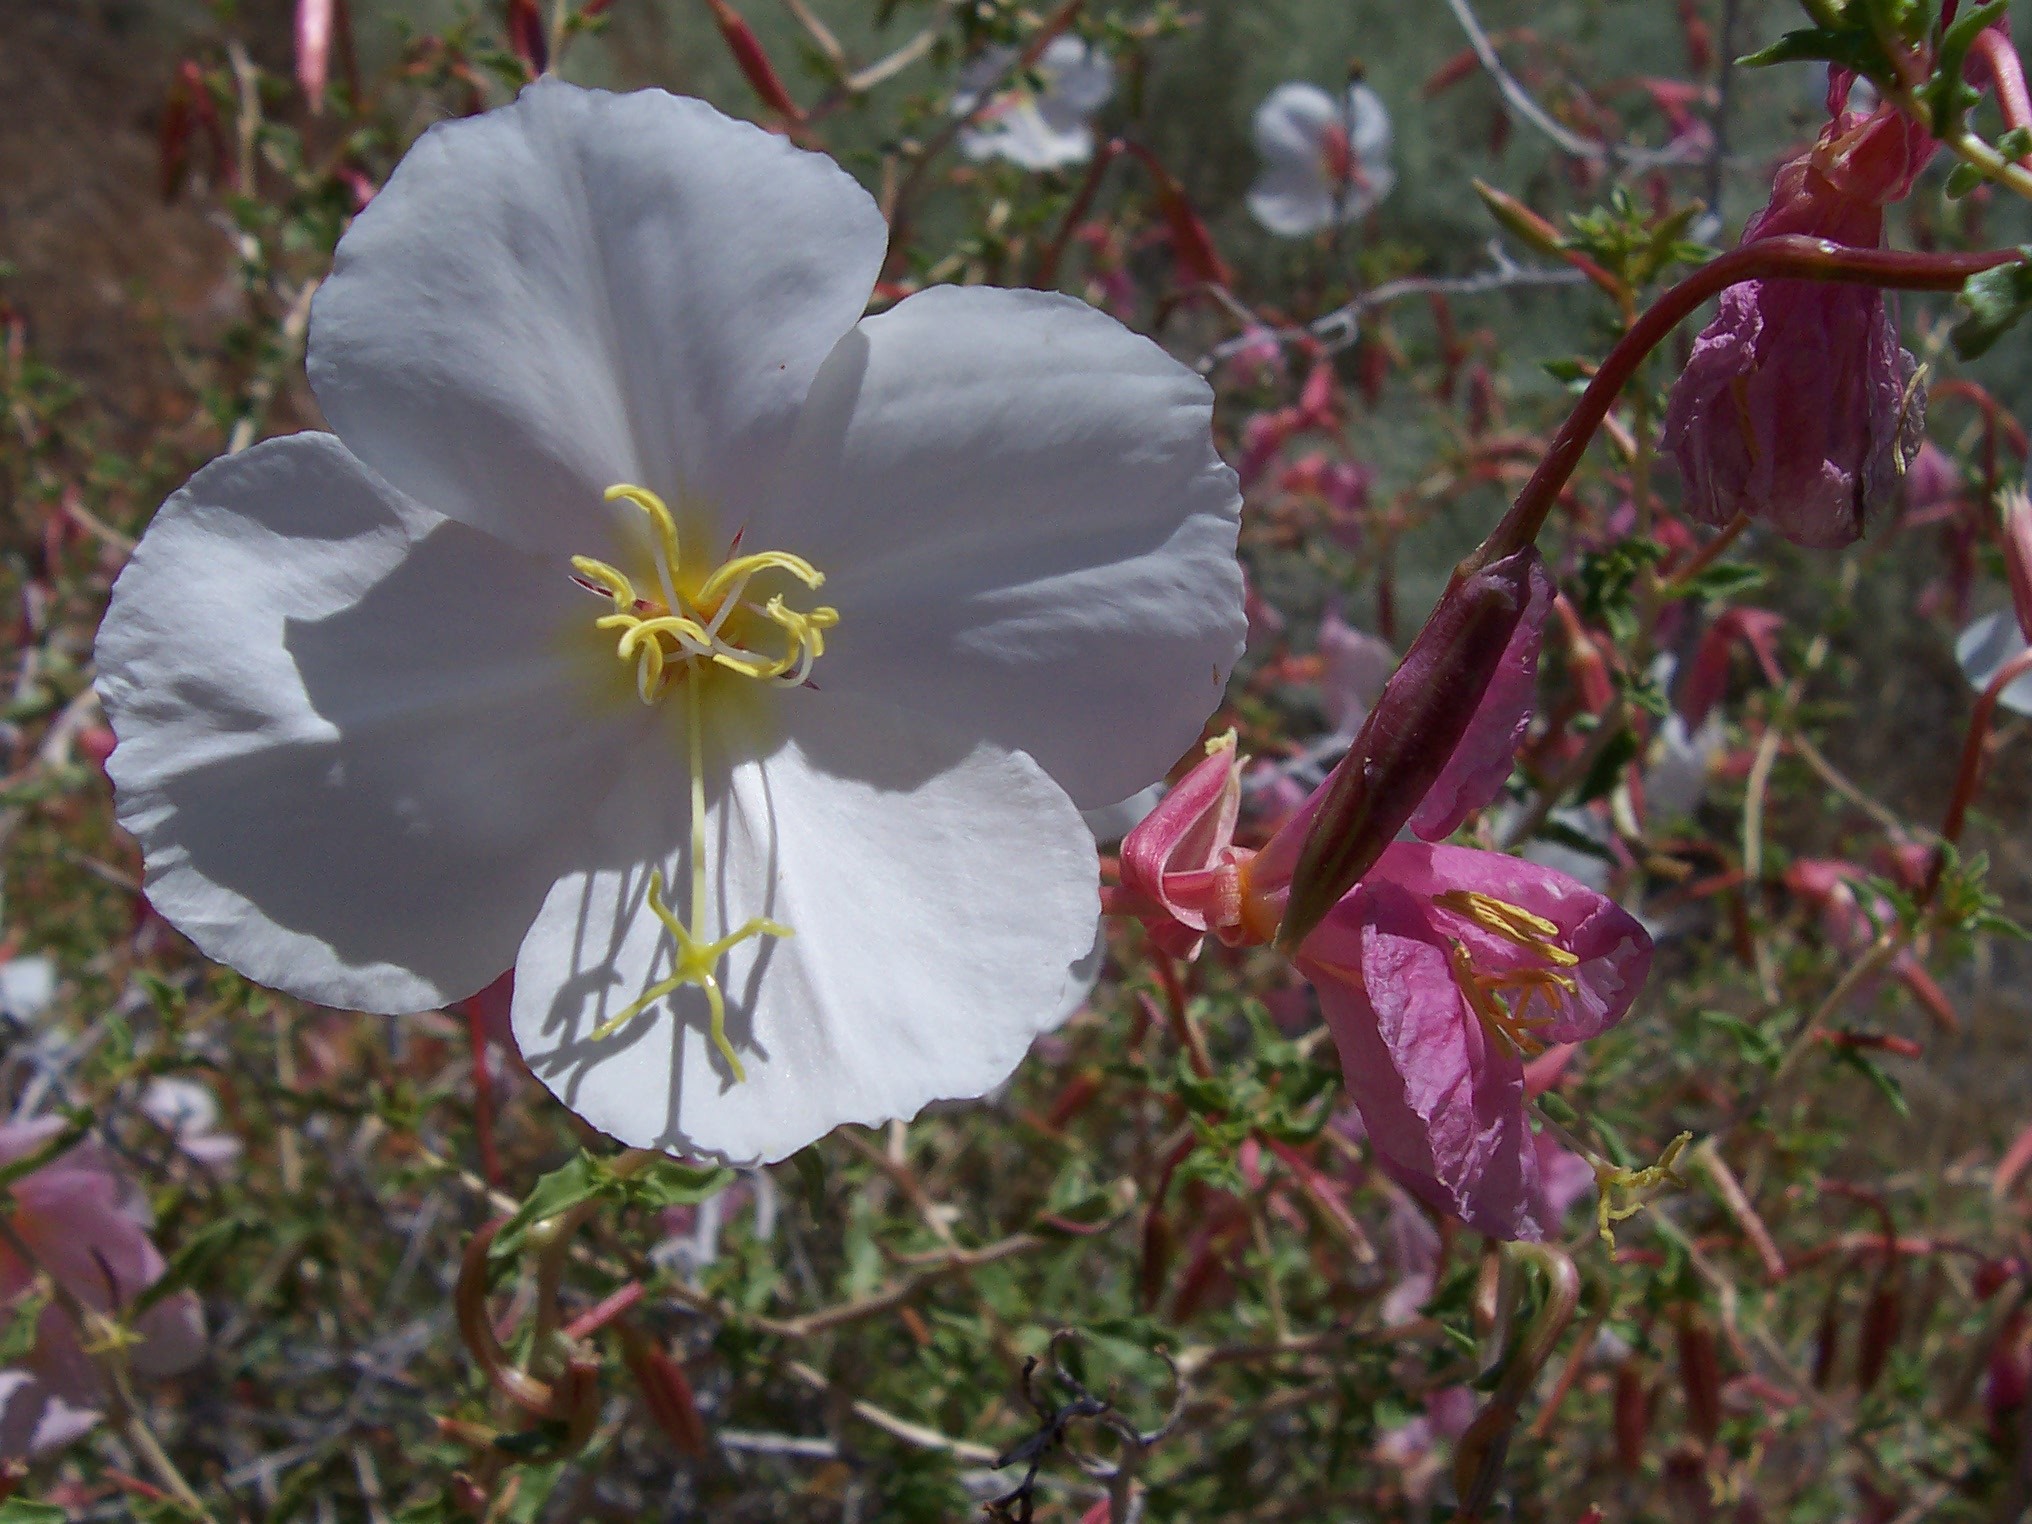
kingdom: Plantae
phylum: Tracheophyta
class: Magnoliopsida
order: Myrtales
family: Onagraceae
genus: Oenothera
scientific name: Oenothera pallida
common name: Pale evening-primrose
